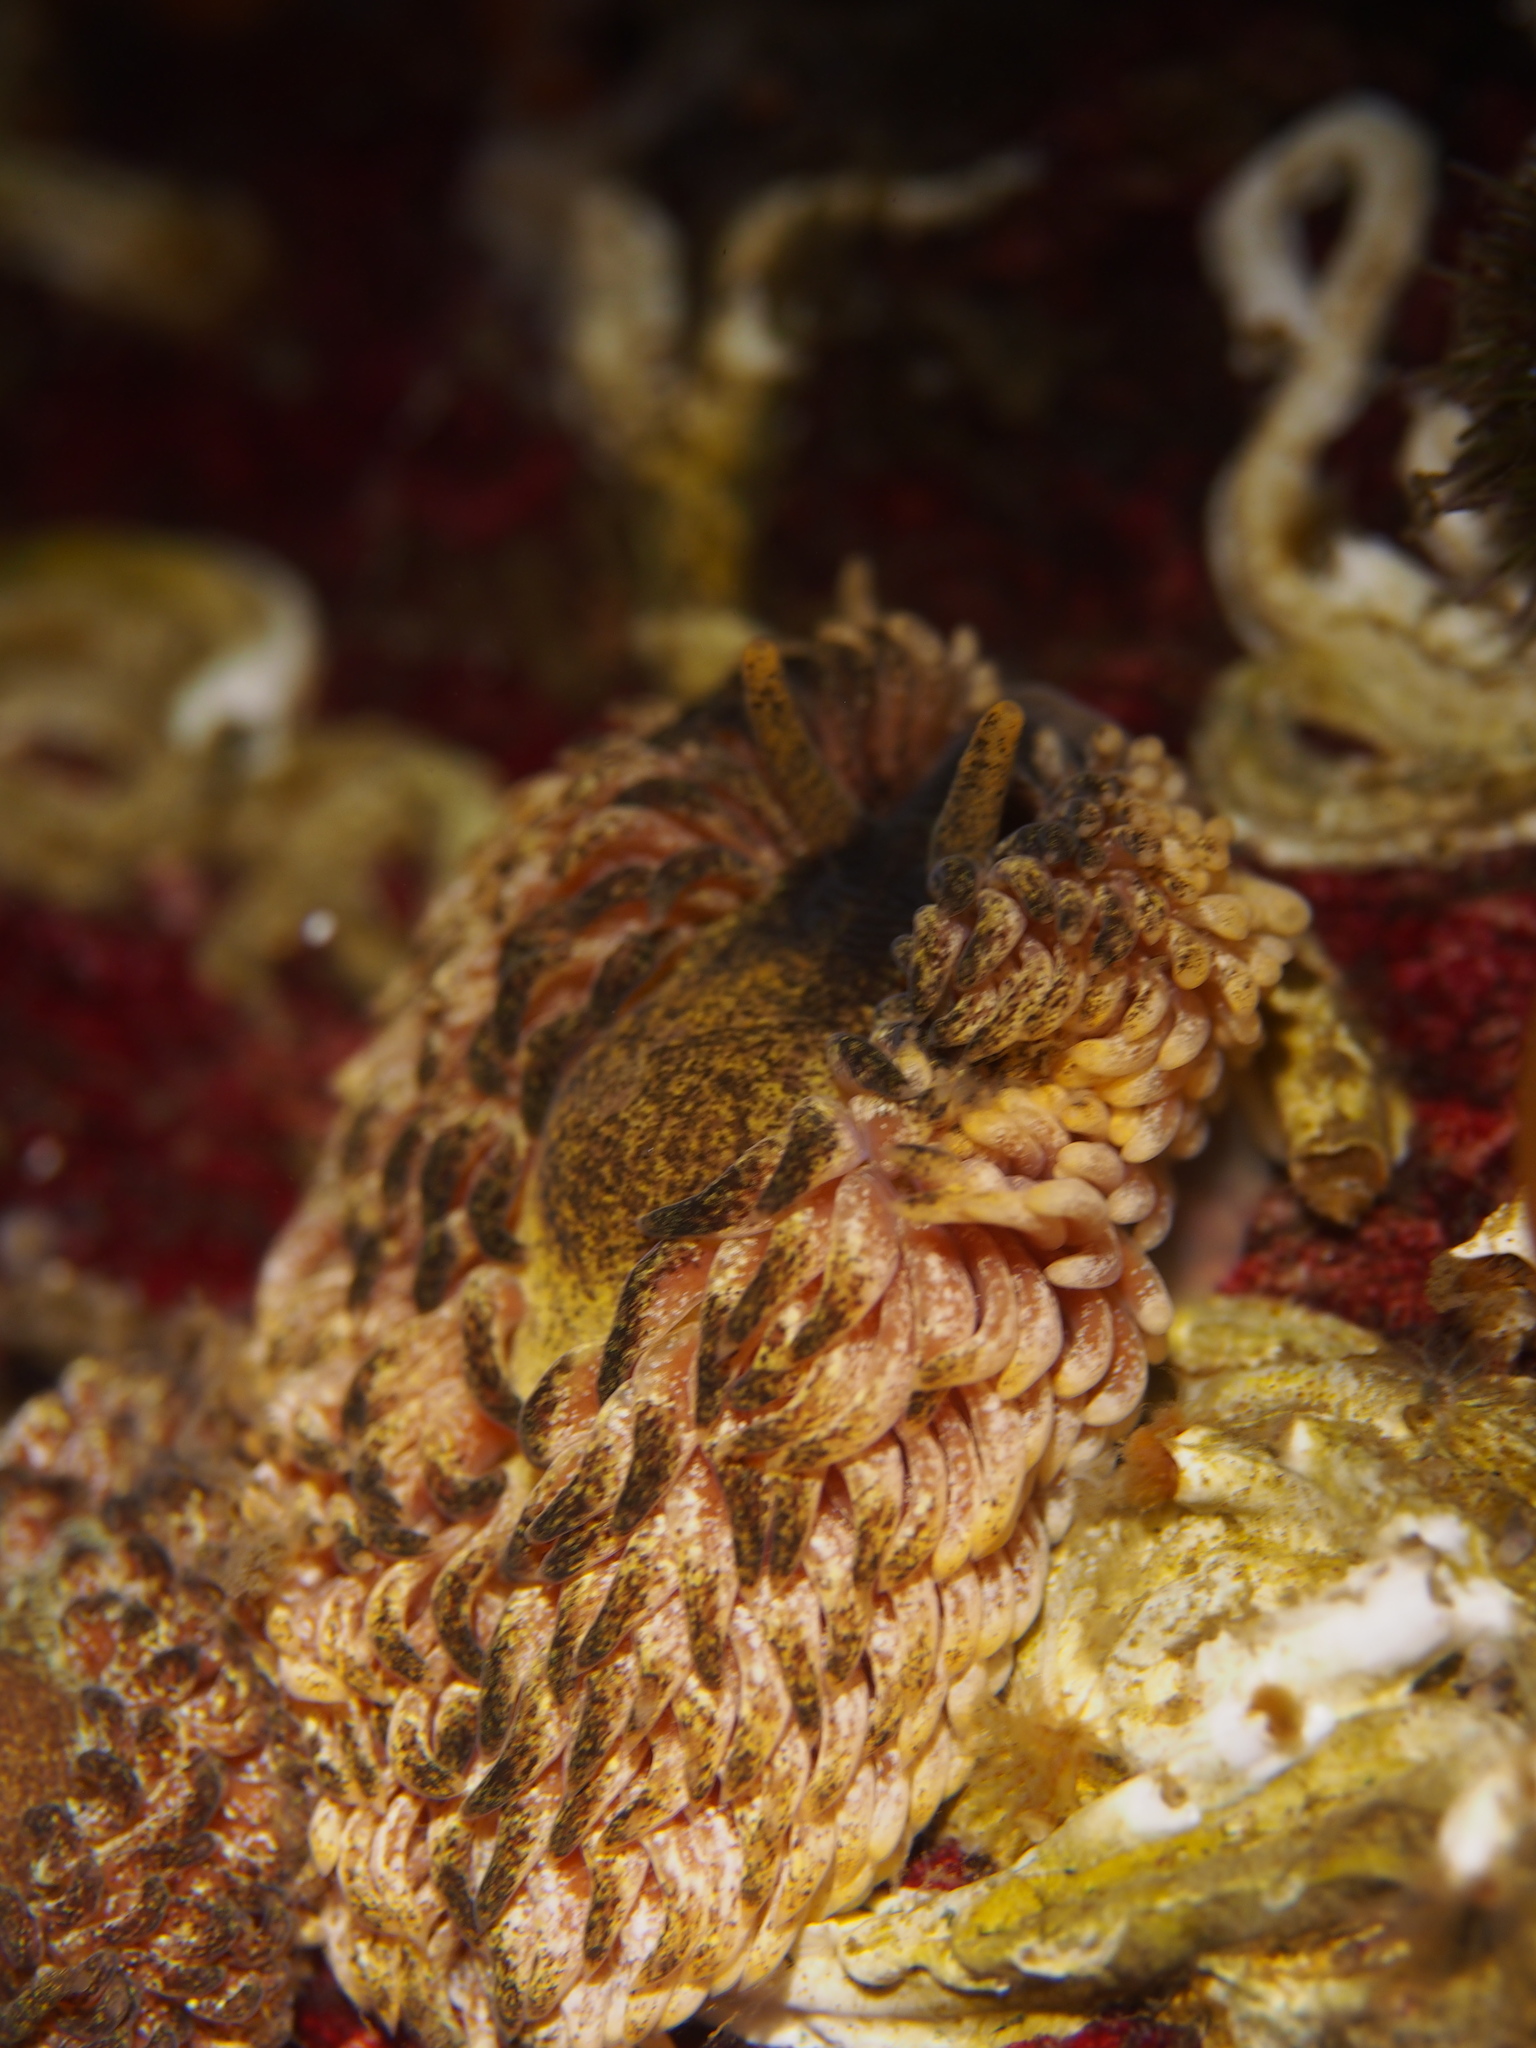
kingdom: Animalia
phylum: Mollusca
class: Gastropoda
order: Nudibranchia
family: Aeolidiidae
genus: Aeolidia
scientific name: Aeolidia papillosa
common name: Common grey sea slug
